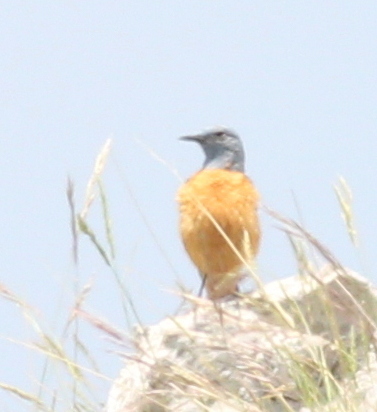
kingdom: Animalia
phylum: Chordata
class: Aves
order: Passeriformes
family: Muscicapidae
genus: Monticola
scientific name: Monticola saxatilis
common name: Rufous-tailed rock thrush
